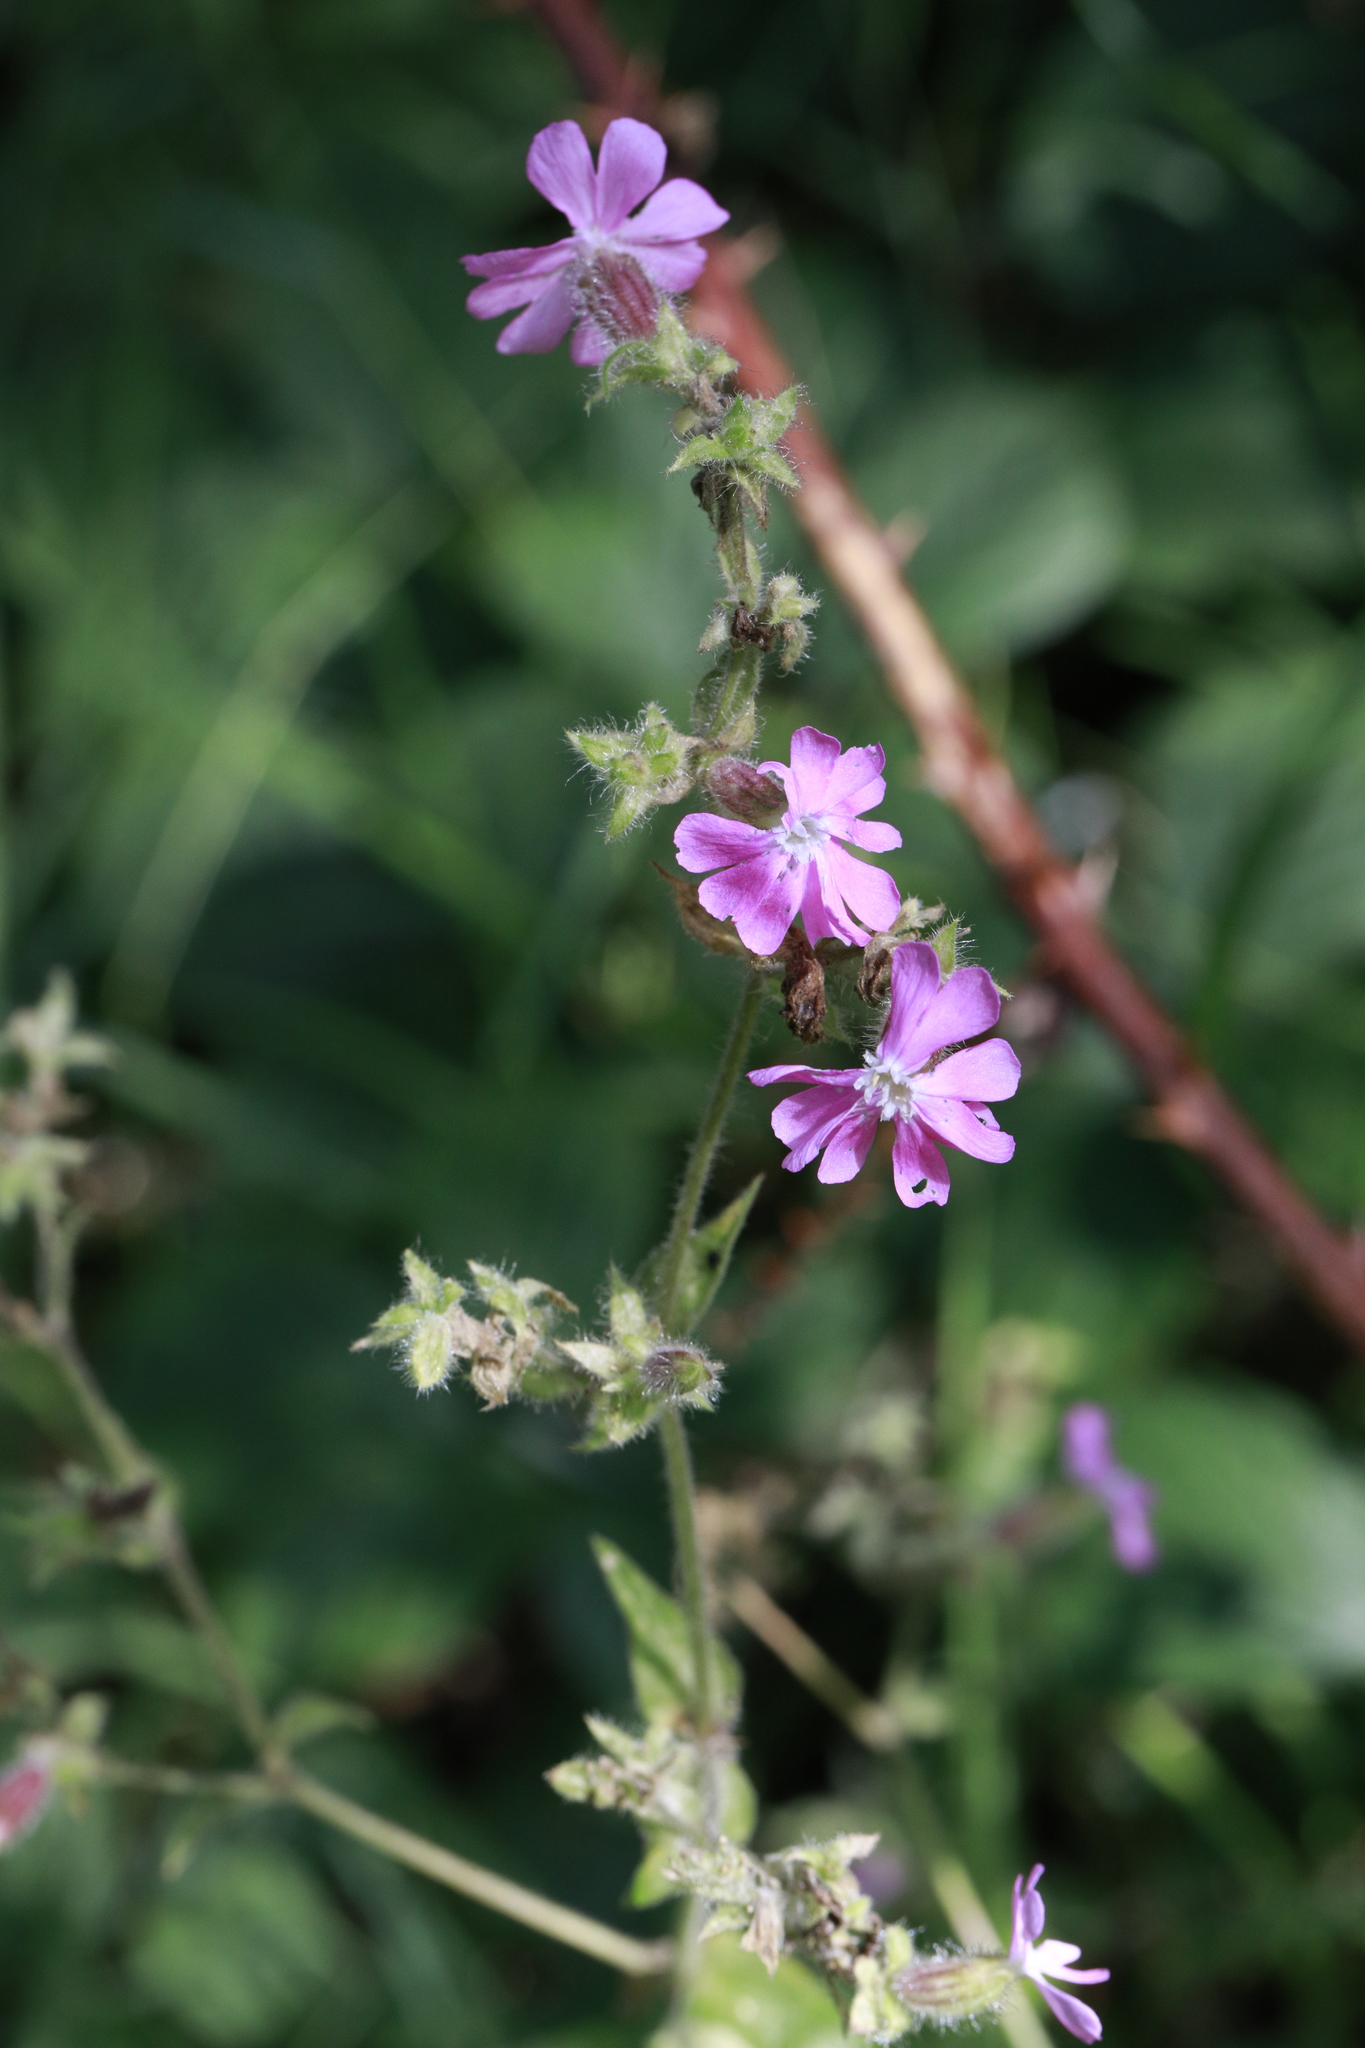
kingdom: Plantae
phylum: Tracheophyta
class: Magnoliopsida
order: Caryophyllales
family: Caryophyllaceae
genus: Silene
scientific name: Silene dioica
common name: Red campion
